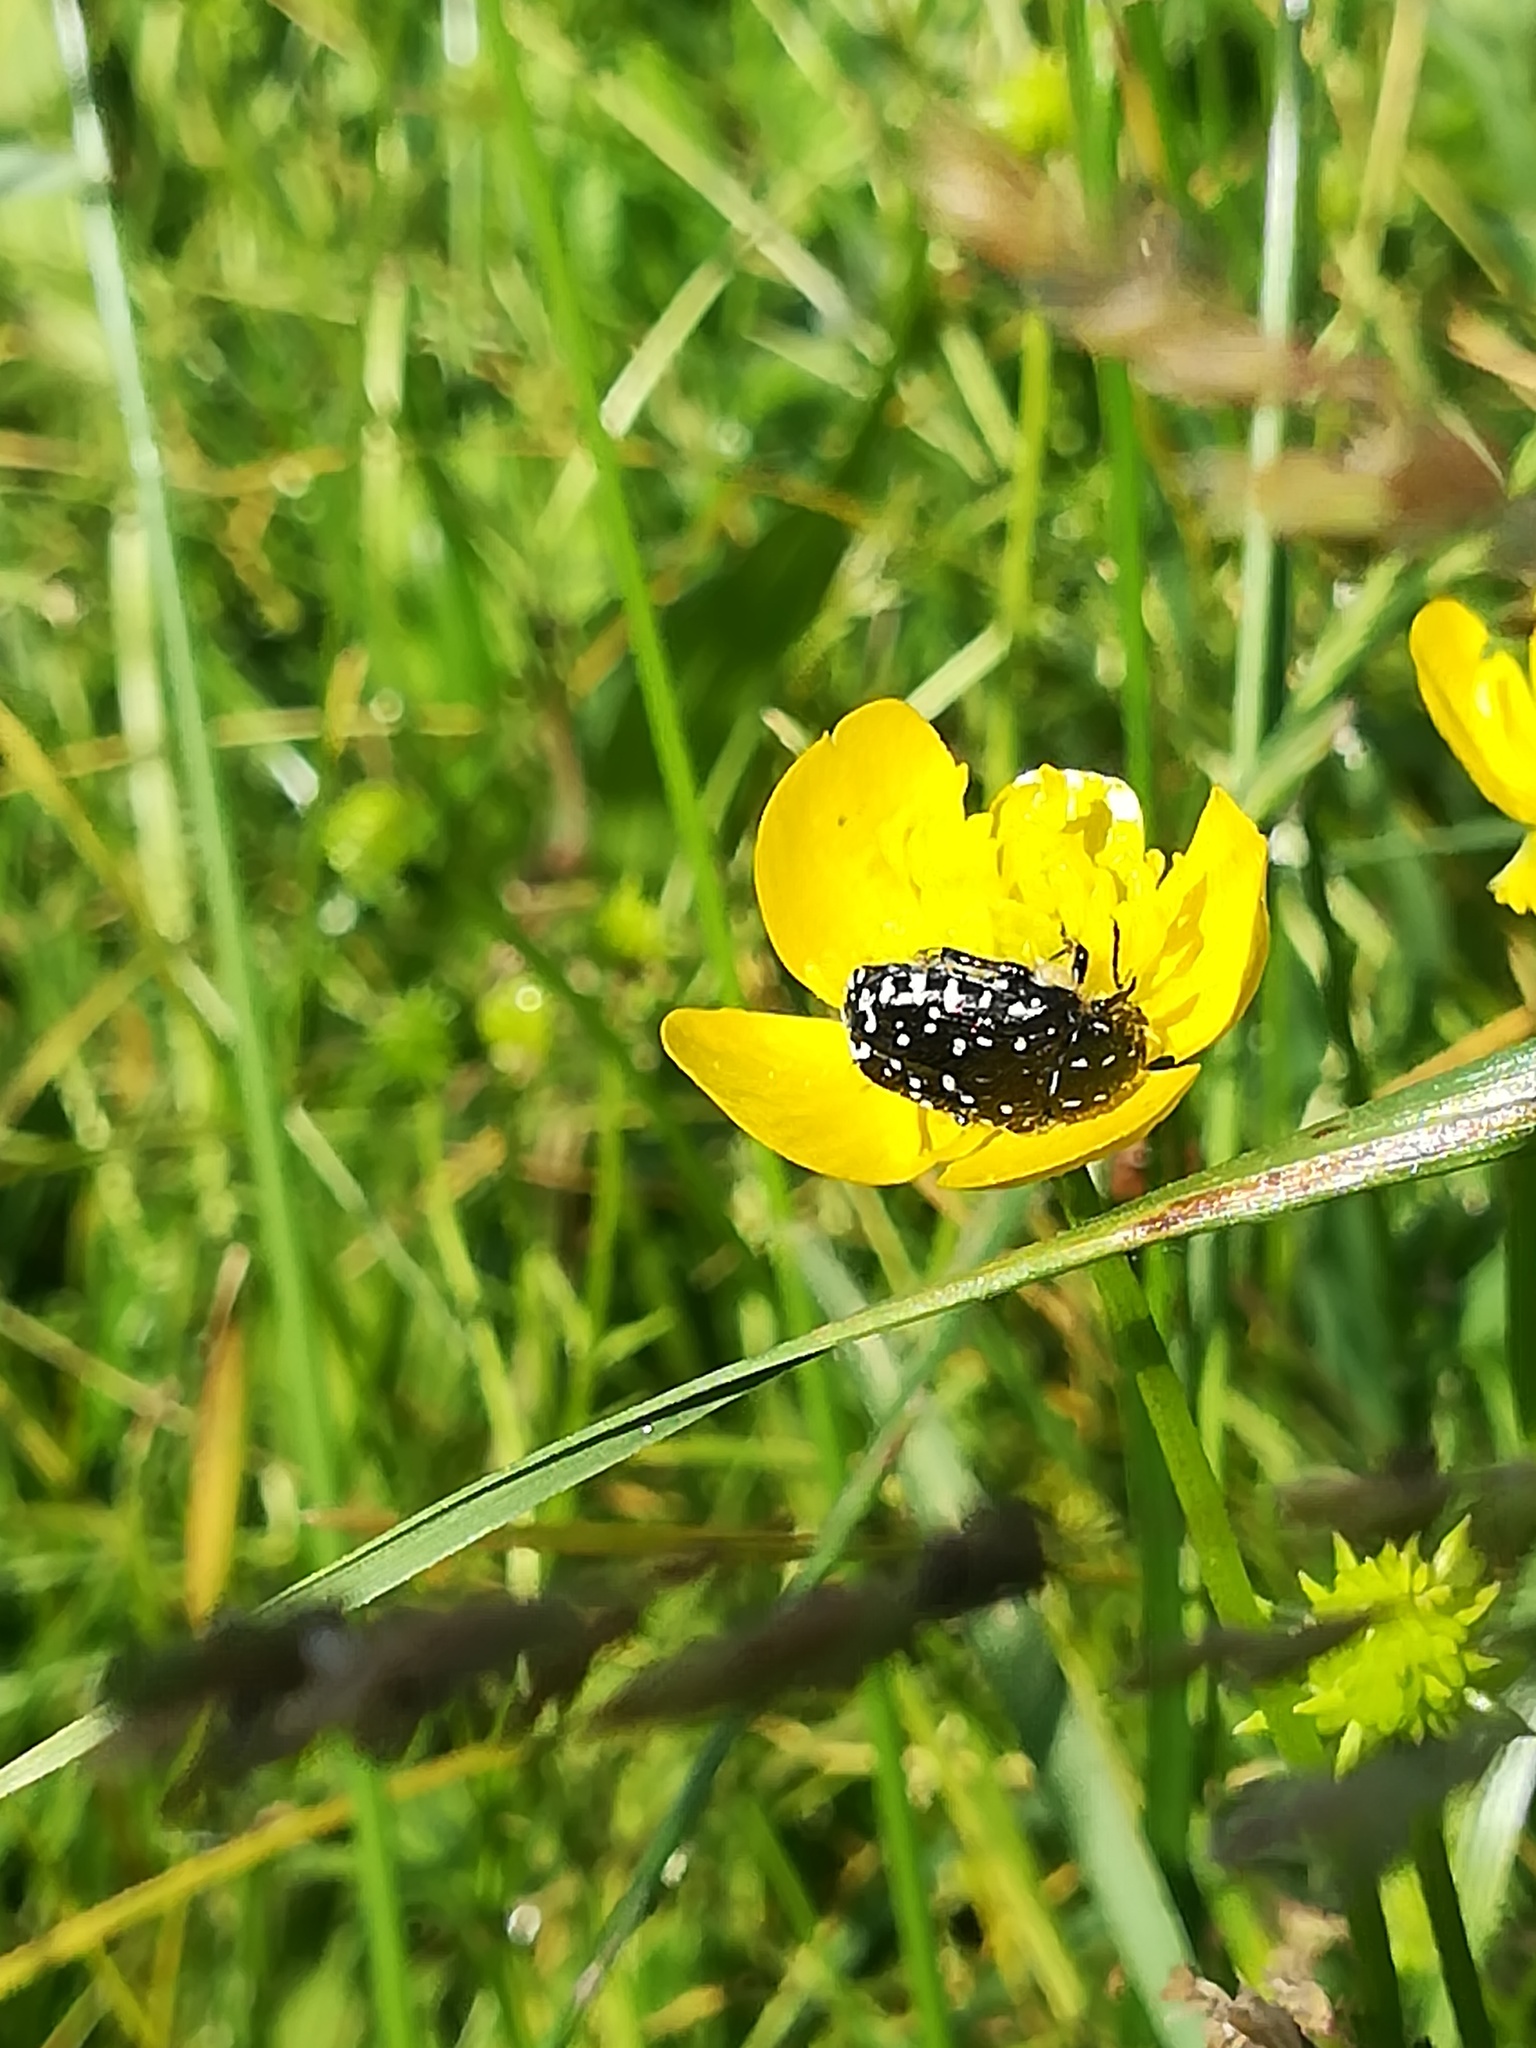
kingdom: Animalia
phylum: Arthropoda
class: Insecta
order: Coleoptera
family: Scarabaeidae
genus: Oxythyrea
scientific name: Oxythyrea funesta
